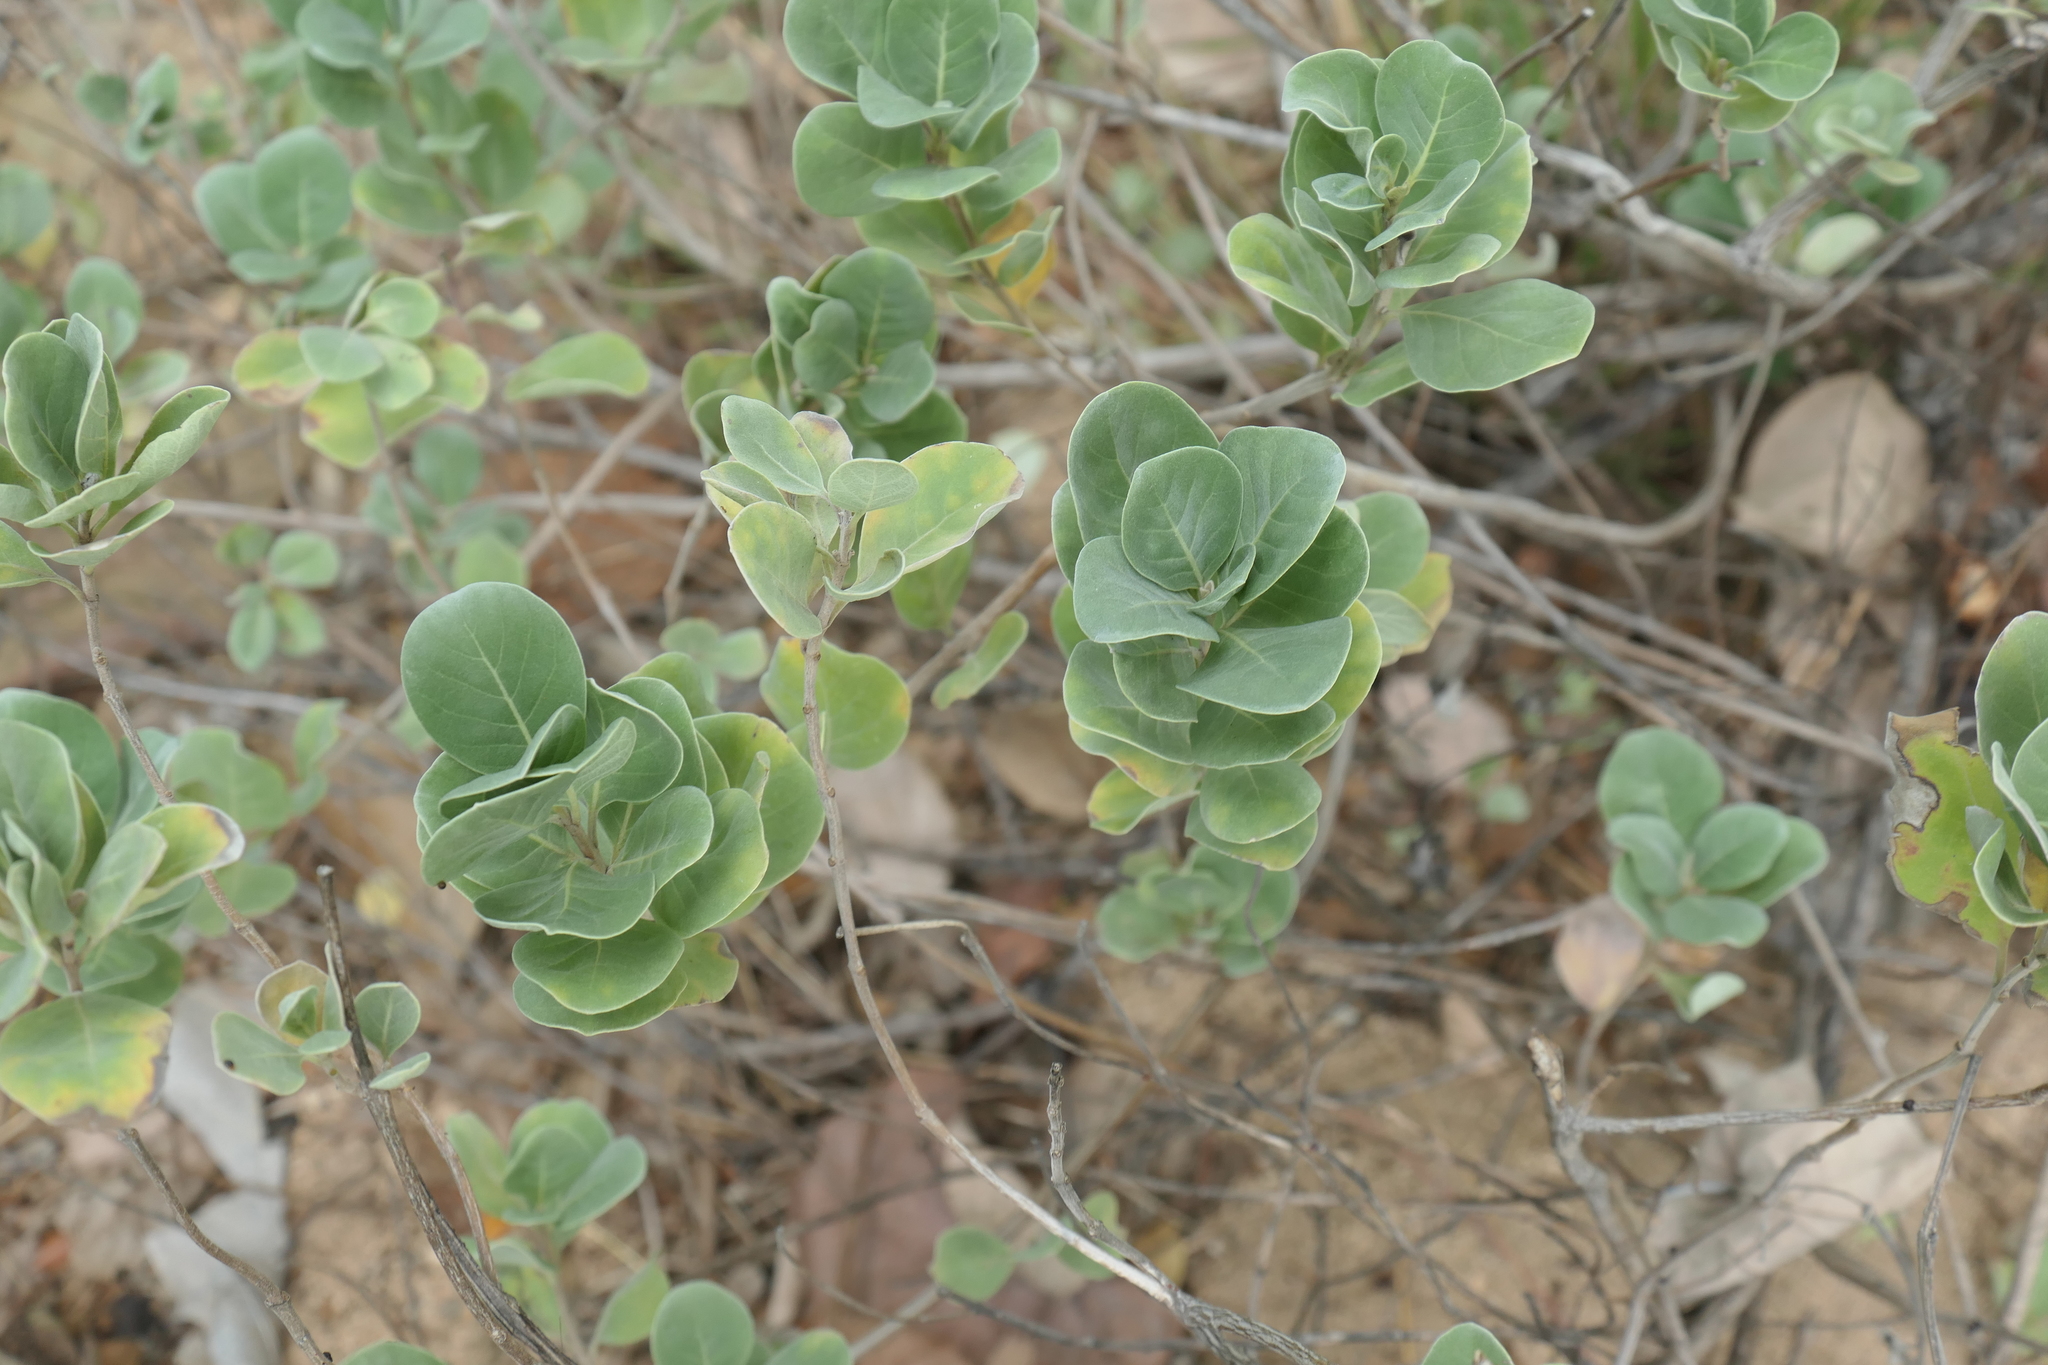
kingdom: Plantae
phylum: Tracheophyta
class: Magnoliopsida
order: Lamiales
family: Lamiaceae
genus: Vitex
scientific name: Vitex rotundifolia
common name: Beach vitex
